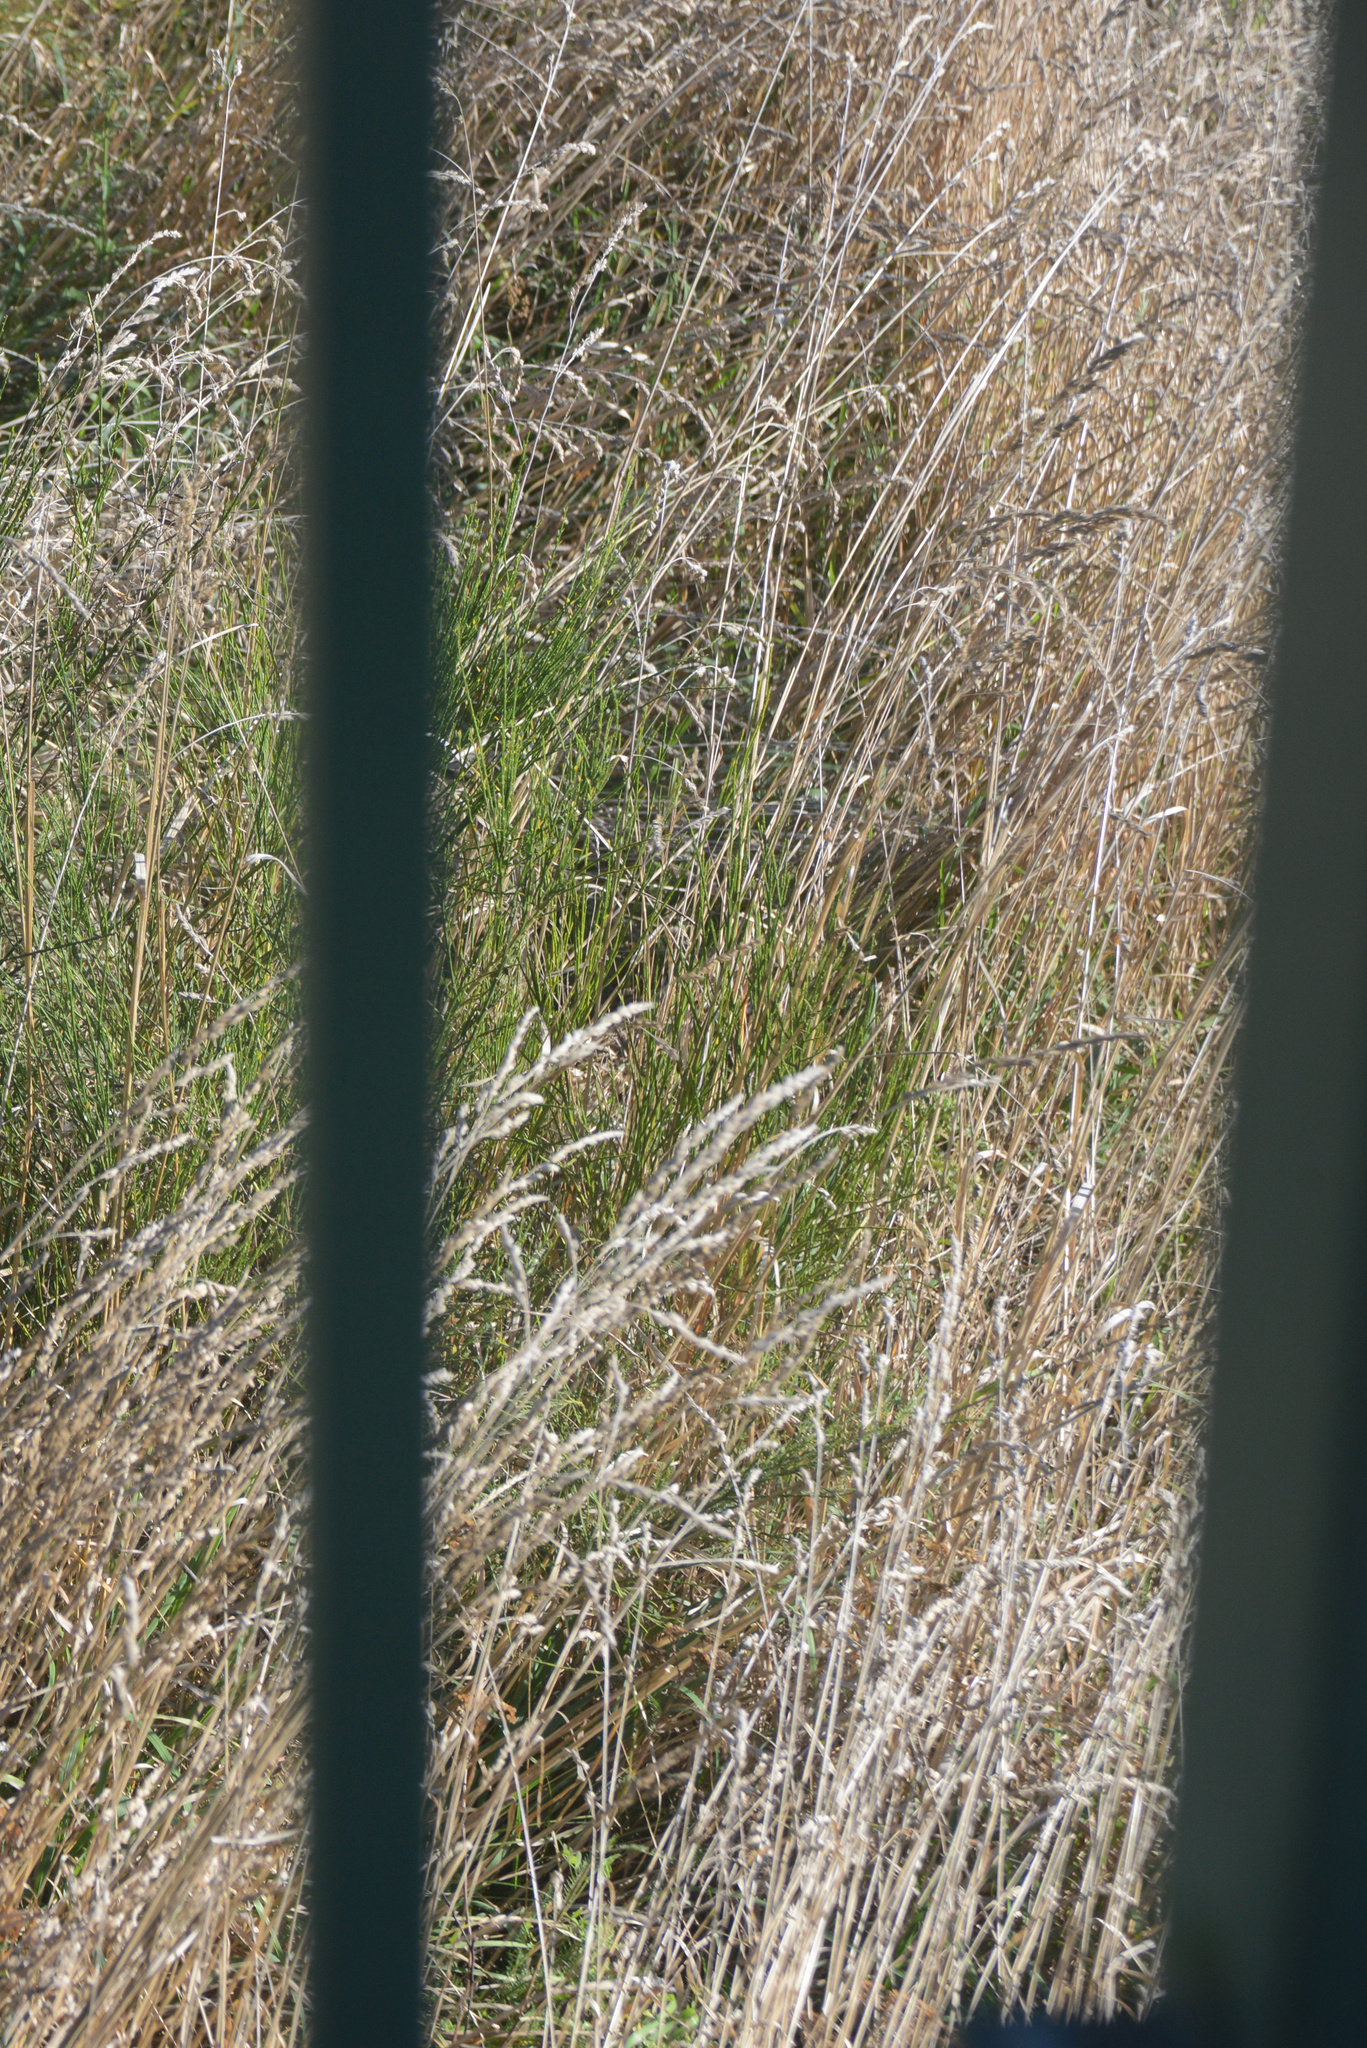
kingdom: Plantae
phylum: Tracheophyta
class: Liliopsida
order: Poales
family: Poaceae
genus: Dactylis
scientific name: Dactylis glomerata
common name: Orchardgrass
